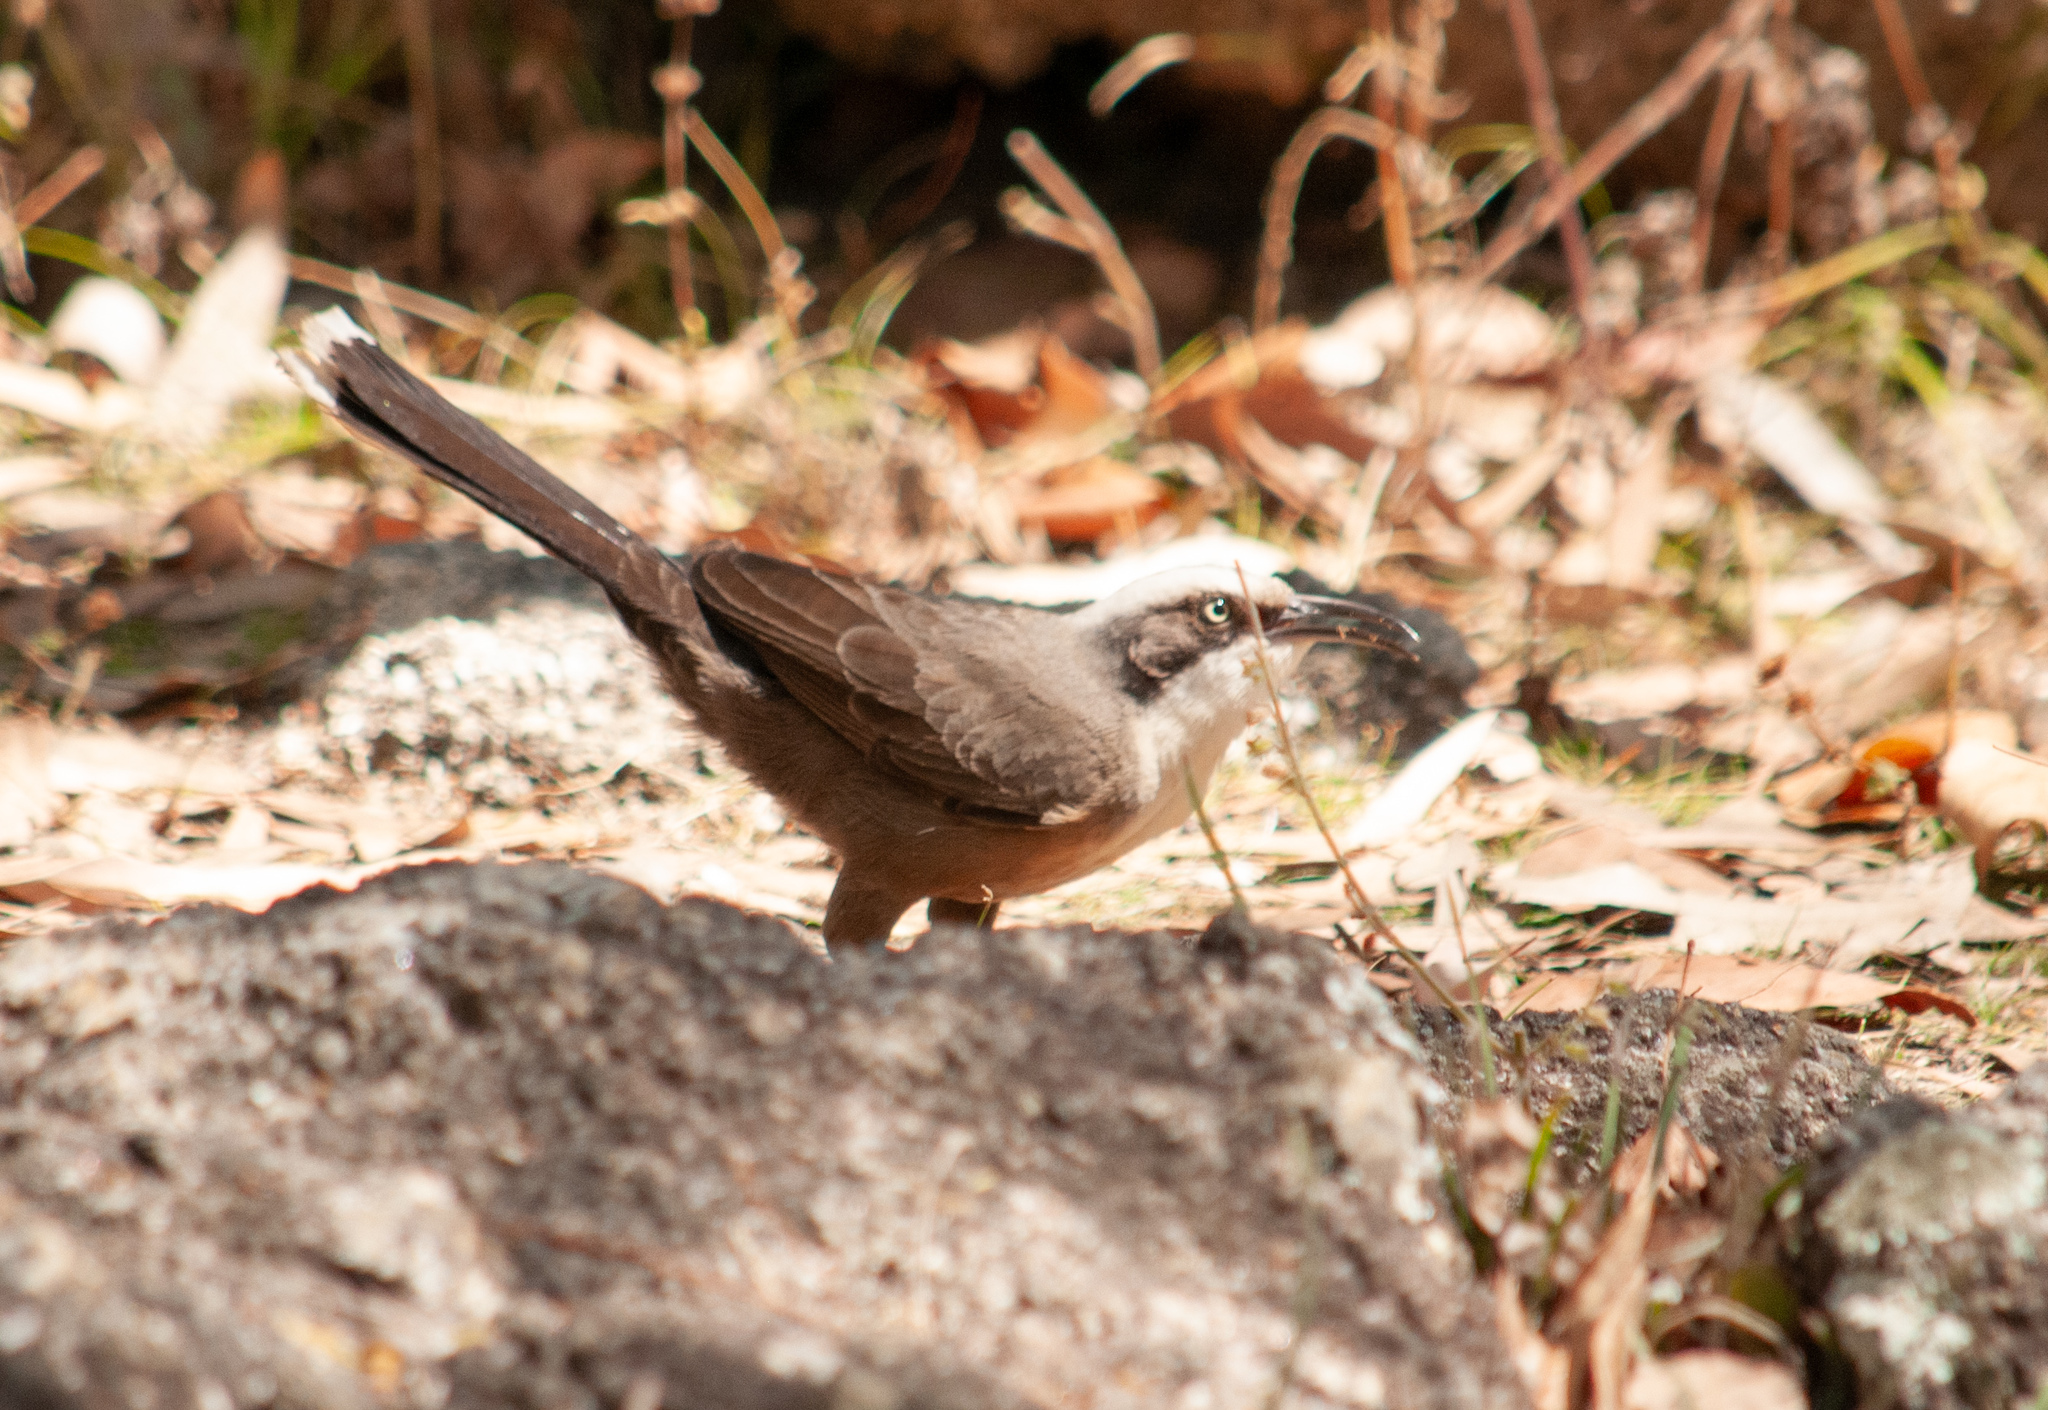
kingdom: Animalia
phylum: Chordata
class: Aves
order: Passeriformes
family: Pomatostomidae
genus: Pomatostomus
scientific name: Pomatostomus temporalis
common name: Grey-crowned babbler
